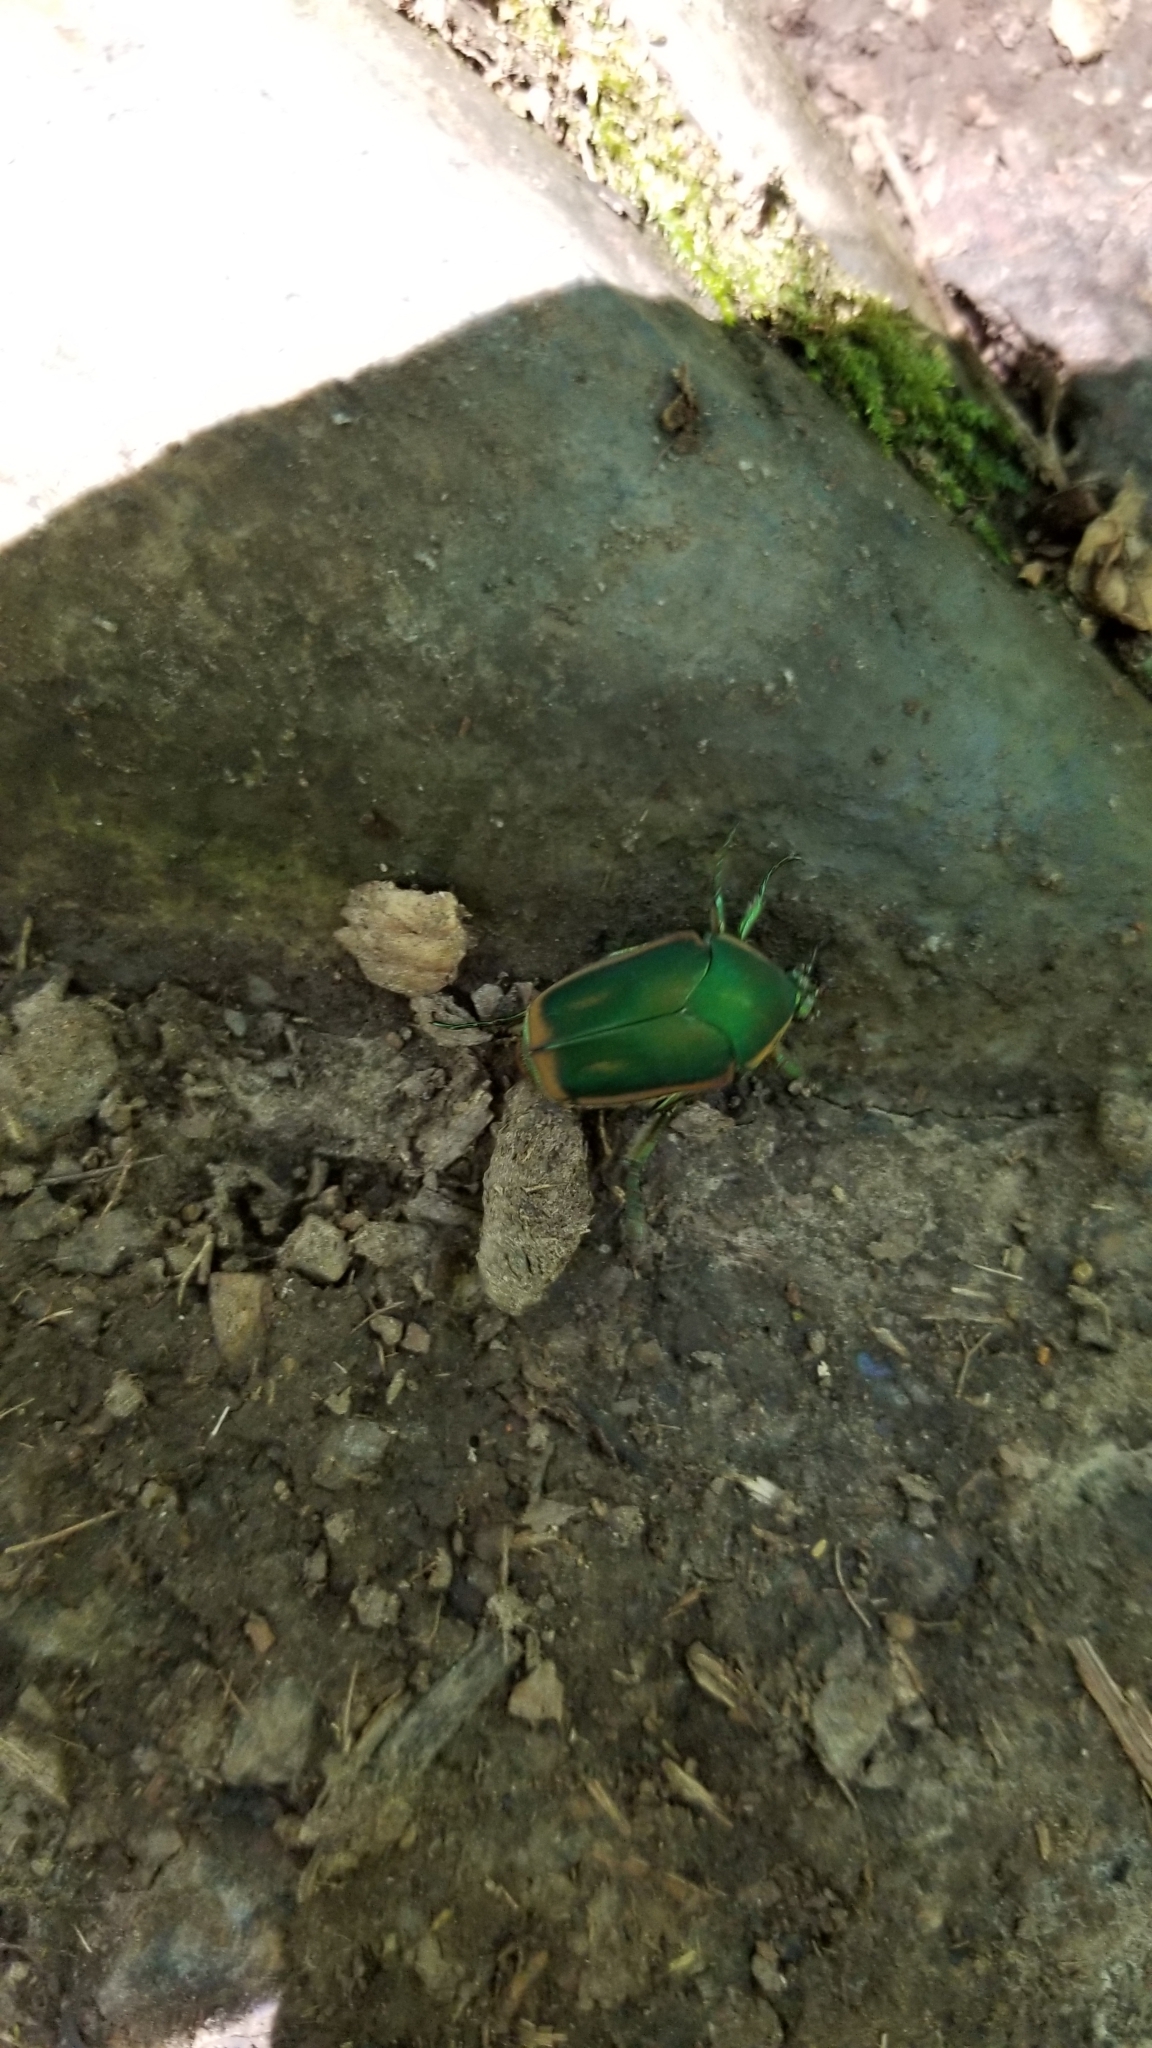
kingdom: Animalia
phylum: Arthropoda
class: Insecta
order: Coleoptera
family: Scarabaeidae
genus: Cotinis
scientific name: Cotinis nitida
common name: Common green june beetle
